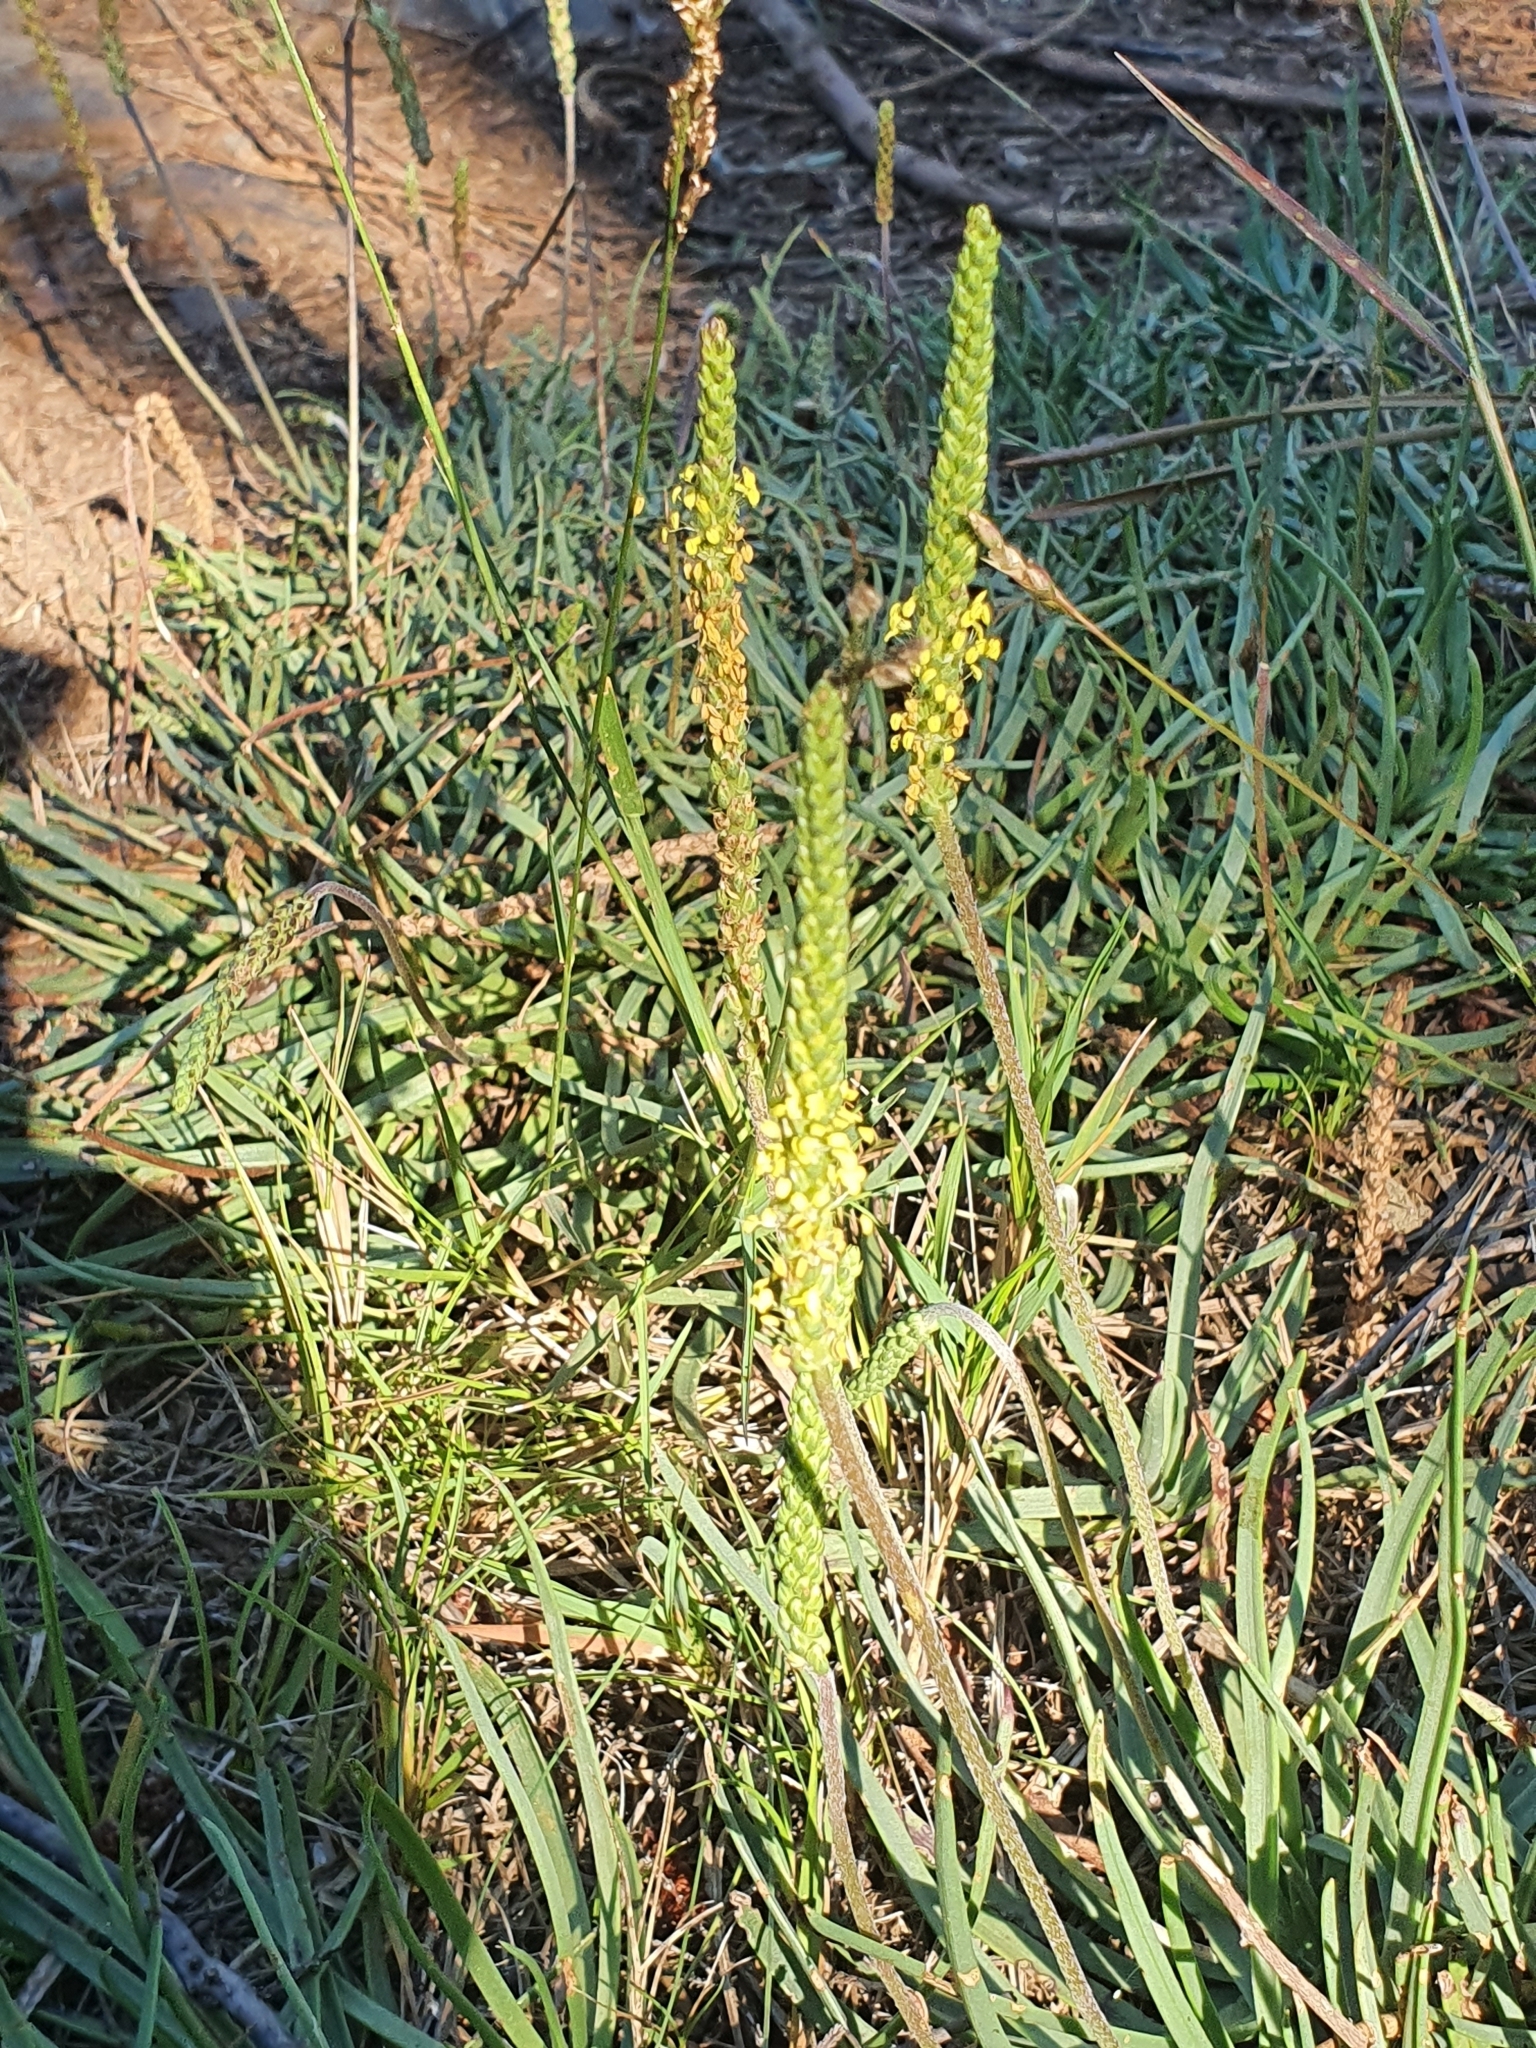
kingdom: Plantae
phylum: Tracheophyta
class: Magnoliopsida
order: Lamiales
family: Plantaginaceae
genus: Plantago
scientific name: Plantago
